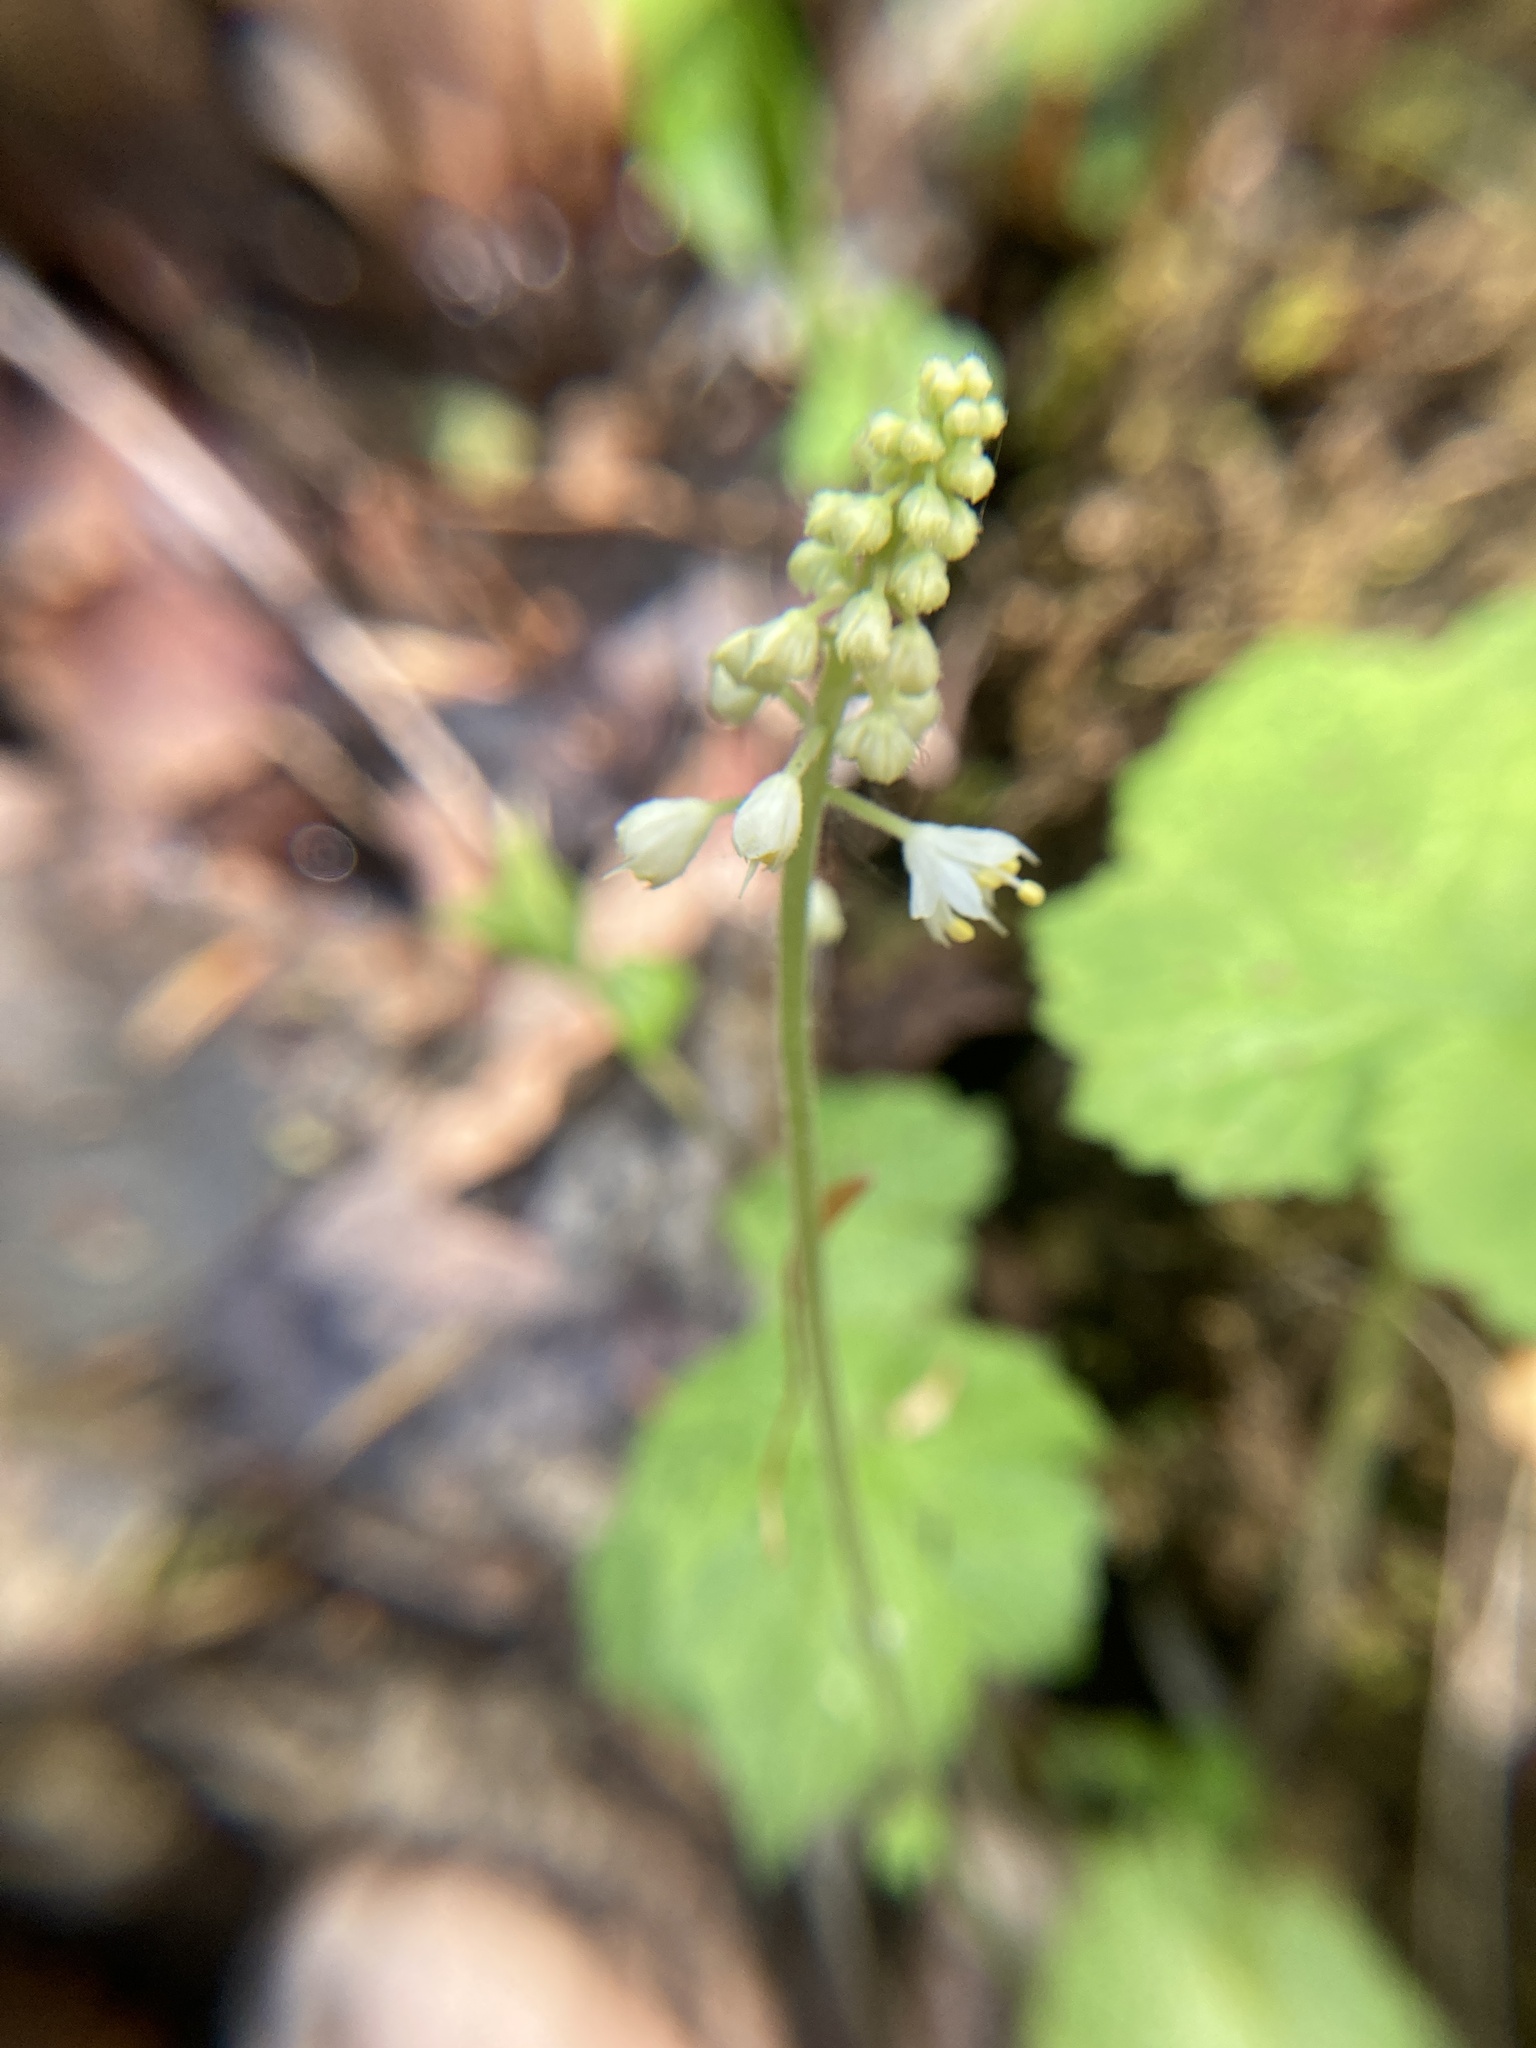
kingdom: Plantae
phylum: Tracheophyta
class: Magnoliopsida
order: Saxifragales
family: Saxifragaceae
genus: Tiarella
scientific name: Tiarella stolonifera
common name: Stoloniferous foamflower
